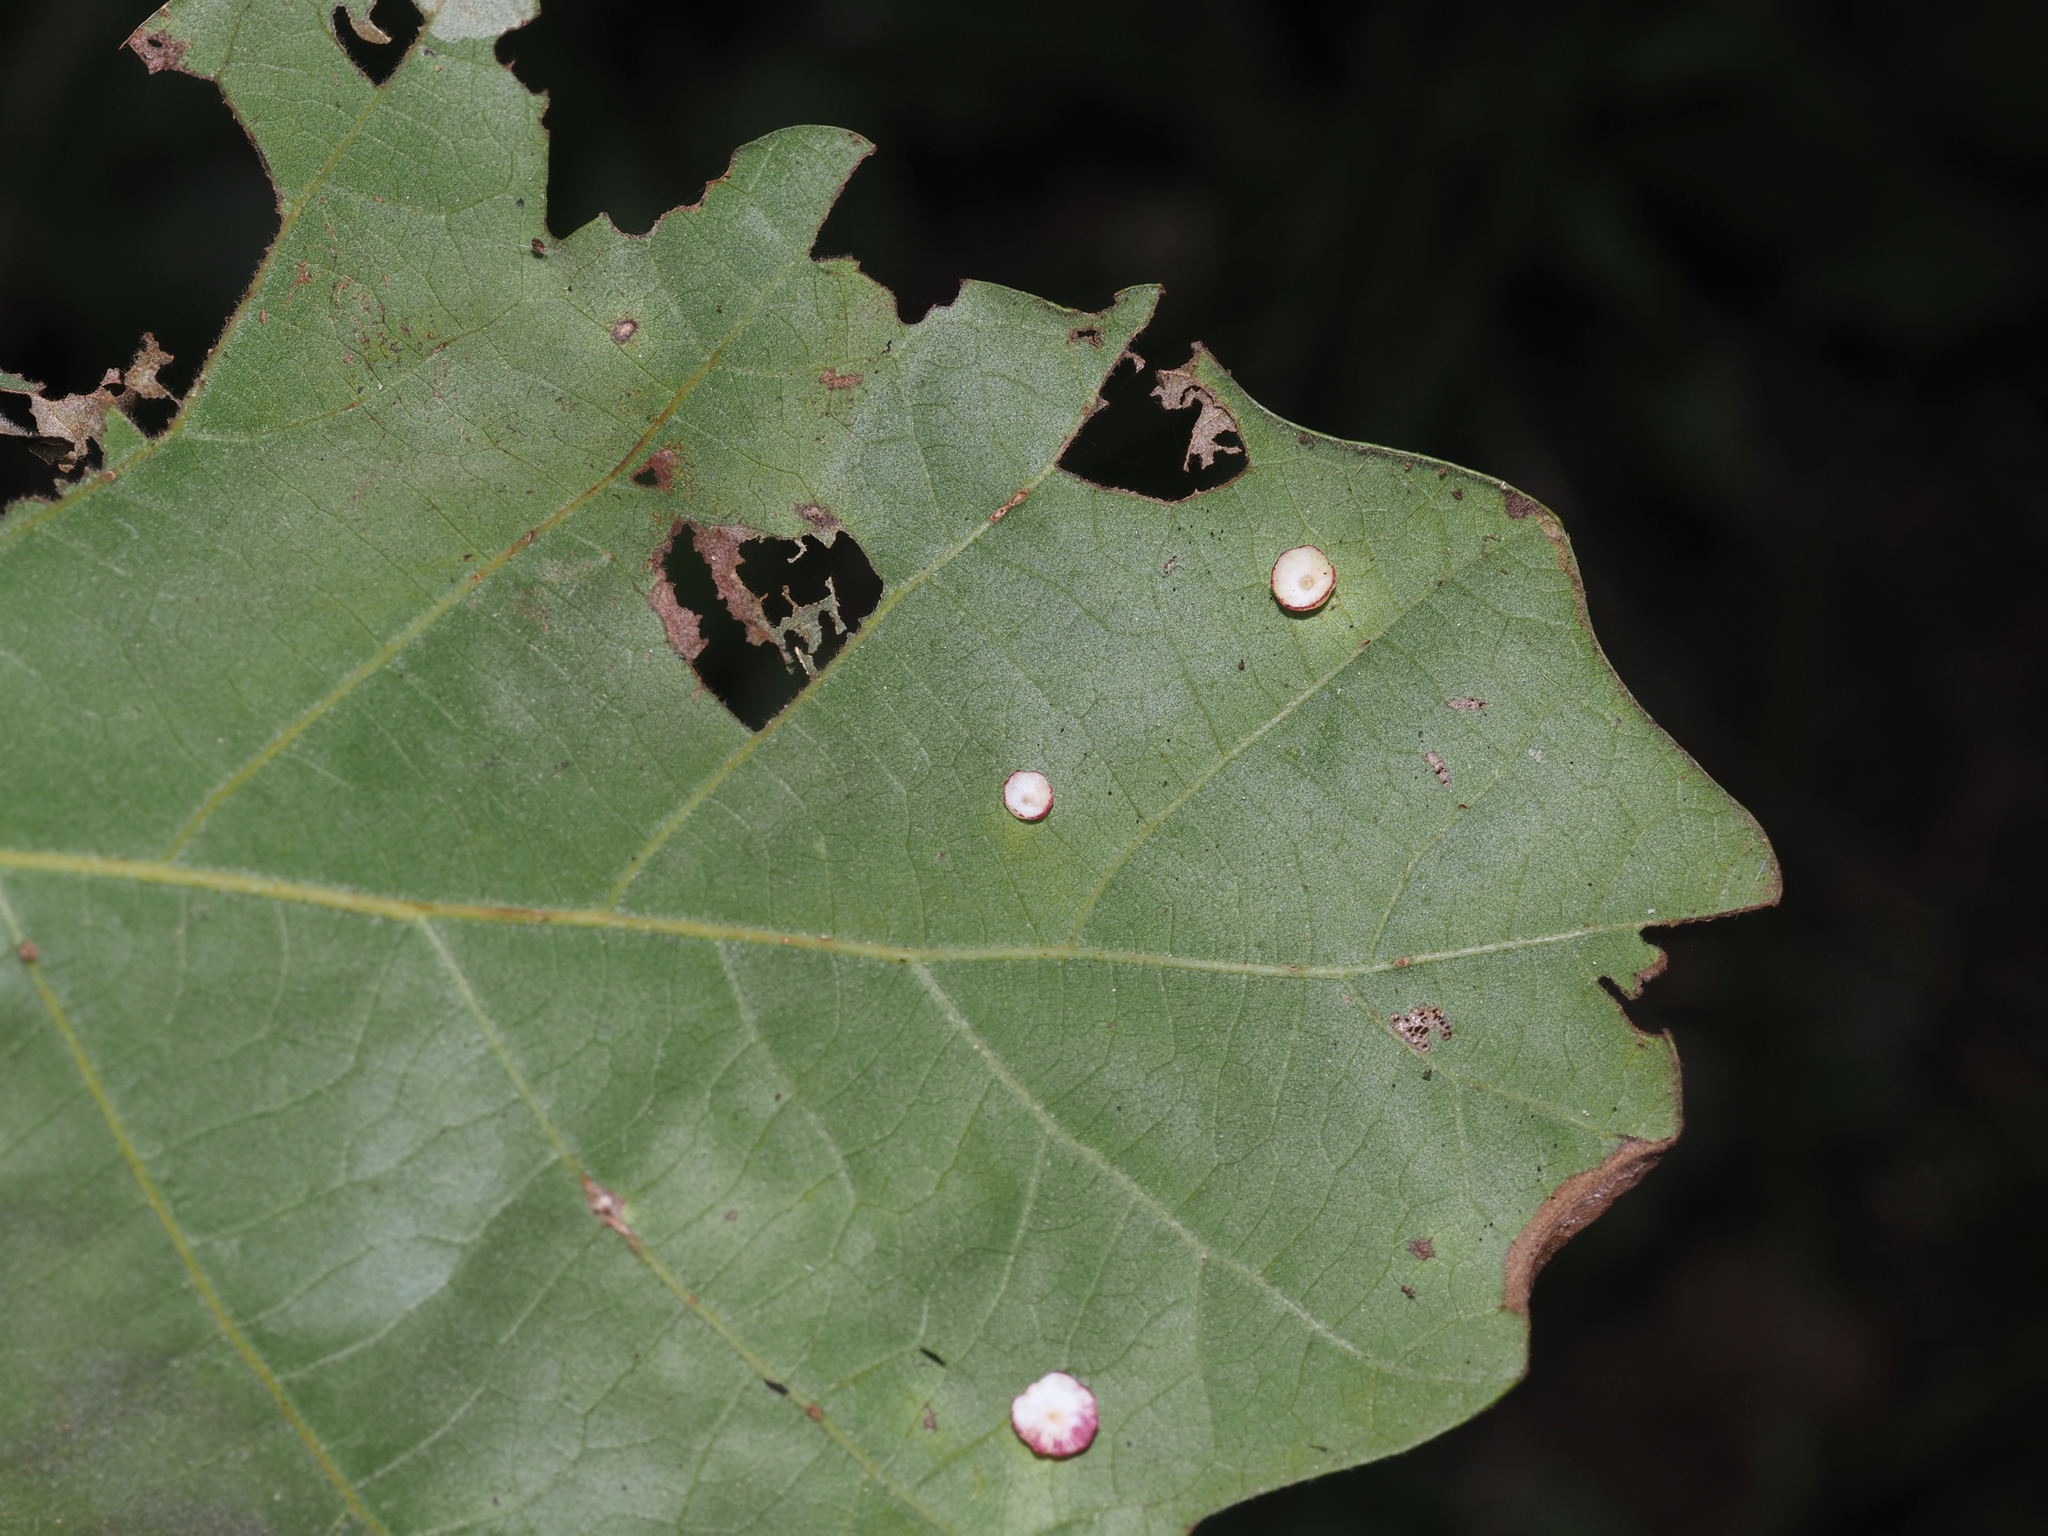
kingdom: Animalia
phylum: Arthropoda
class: Insecta
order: Hymenoptera
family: Cynipidae
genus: Phylloteras
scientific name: Phylloteras
